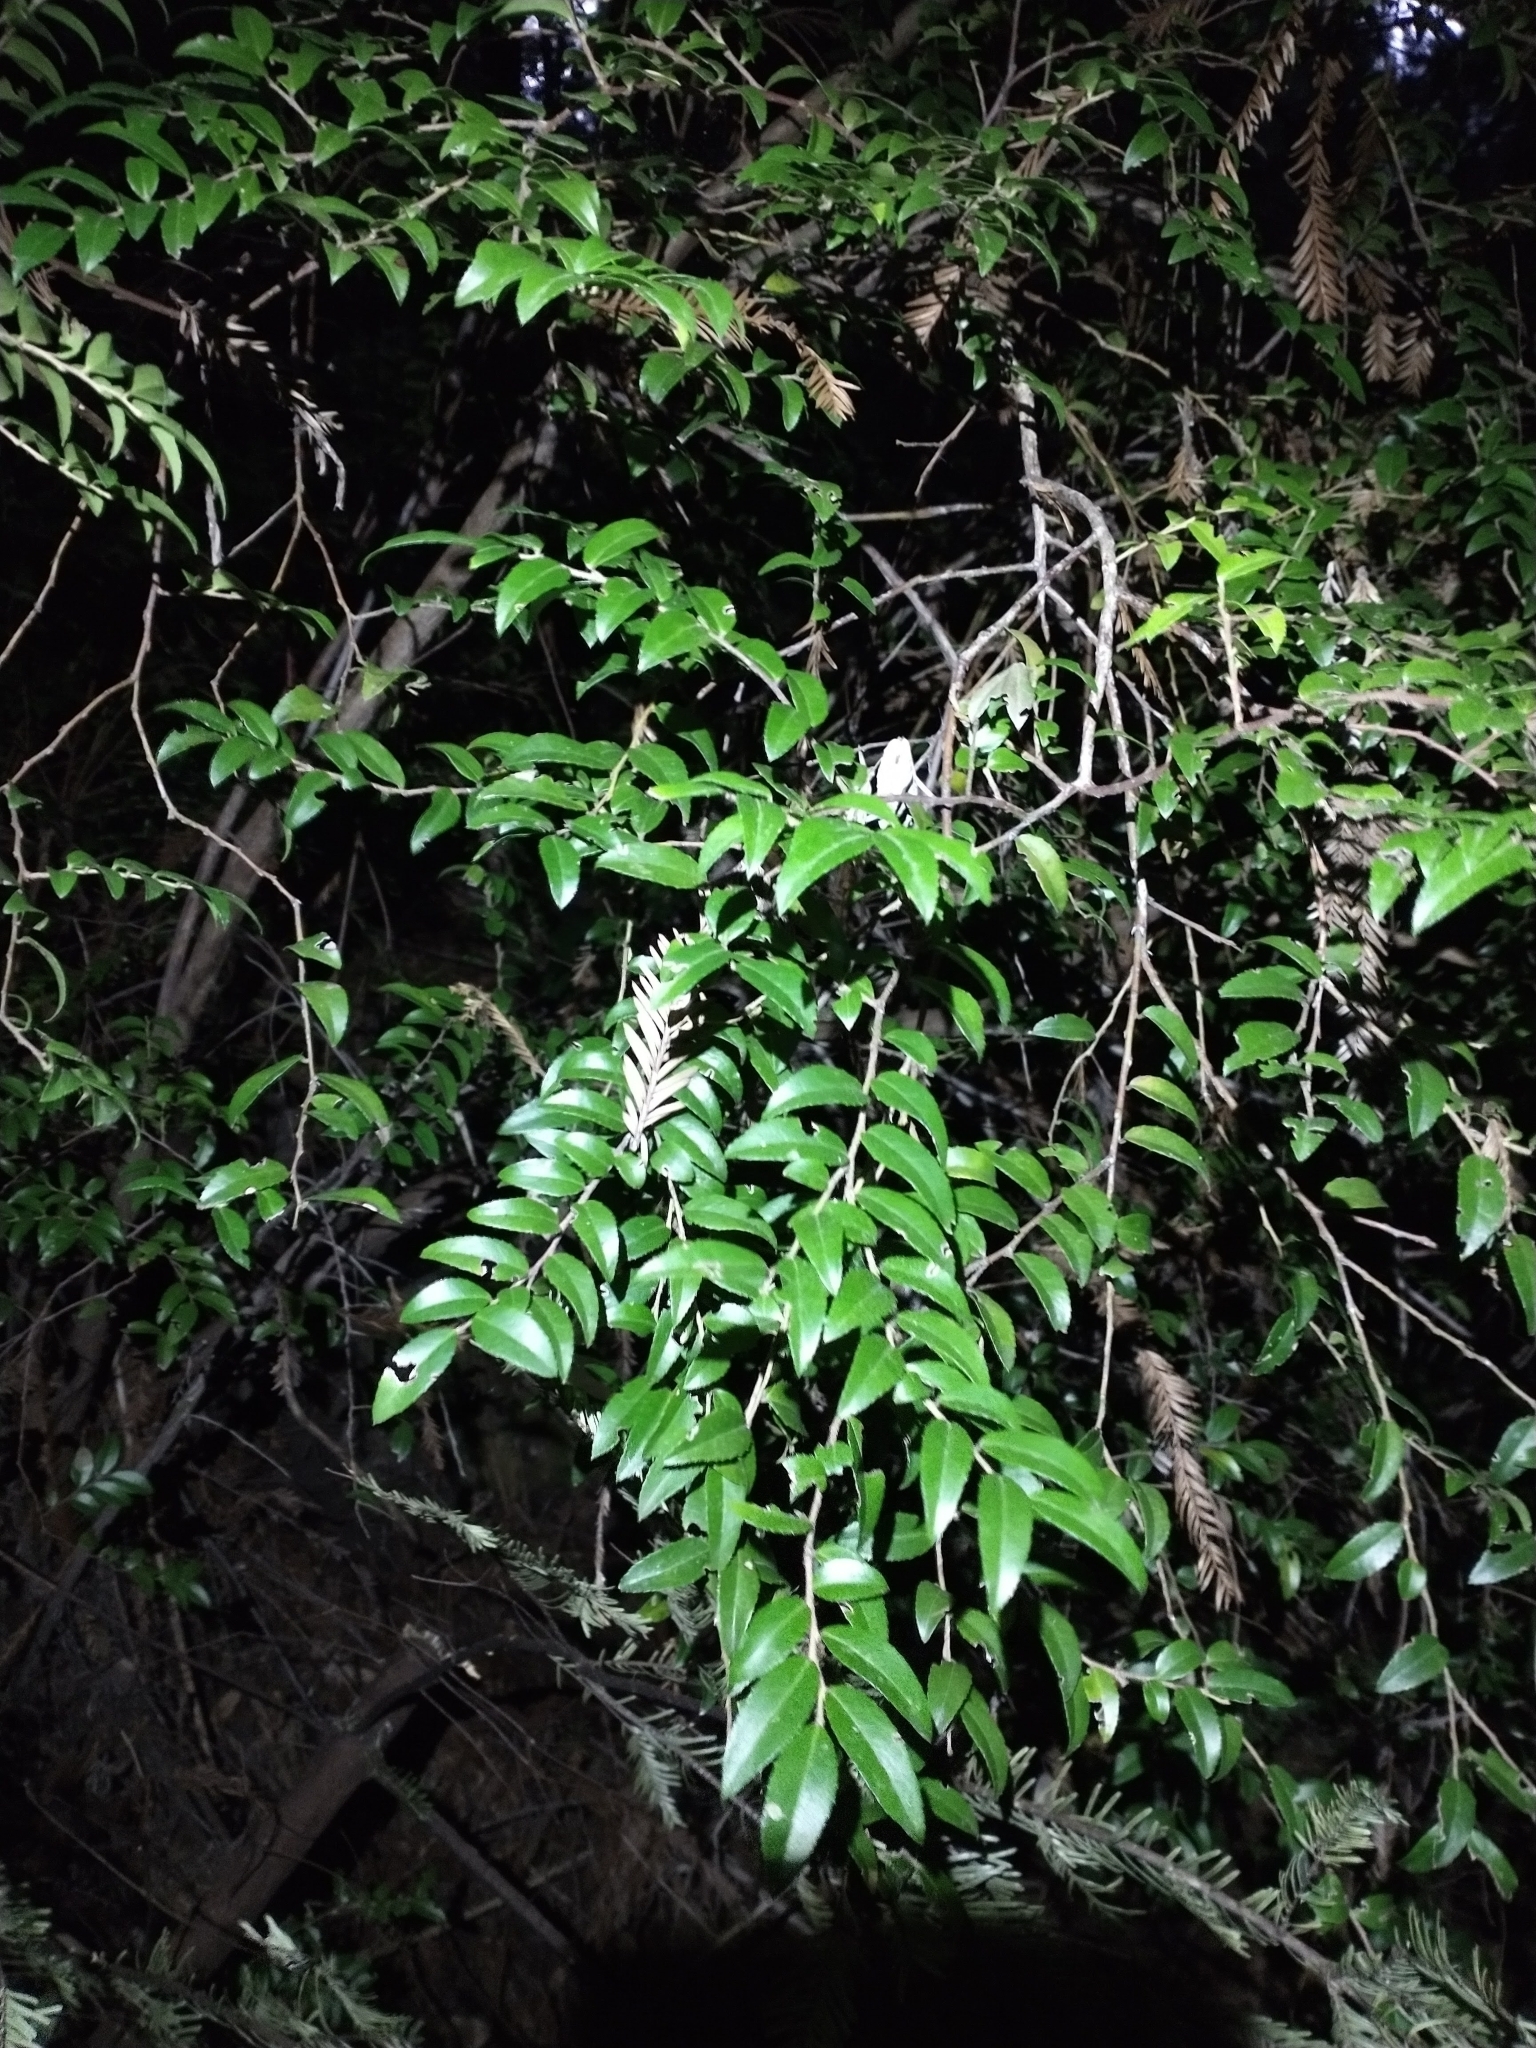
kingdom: Plantae
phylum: Tracheophyta
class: Magnoliopsida
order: Ericales
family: Ericaceae
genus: Vaccinium
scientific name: Vaccinium ovatum
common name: California-huckleberry
